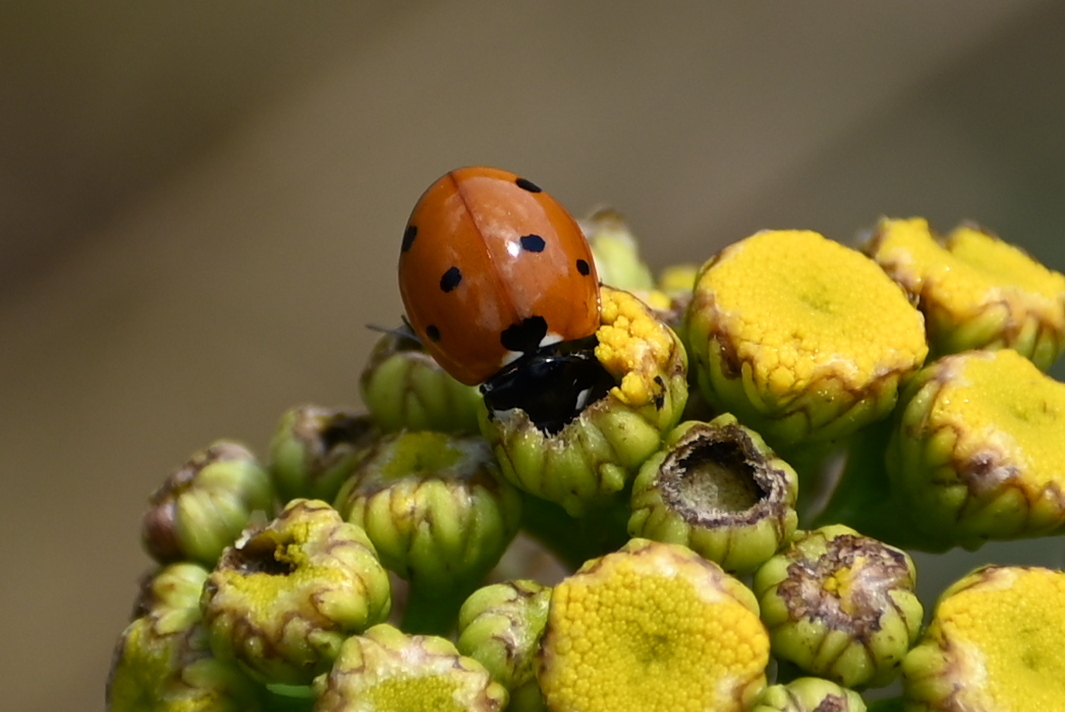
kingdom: Animalia
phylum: Arthropoda
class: Insecta
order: Coleoptera
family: Coccinellidae
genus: Coccinella
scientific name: Coccinella septempunctata
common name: Sevenspotted lady beetle
